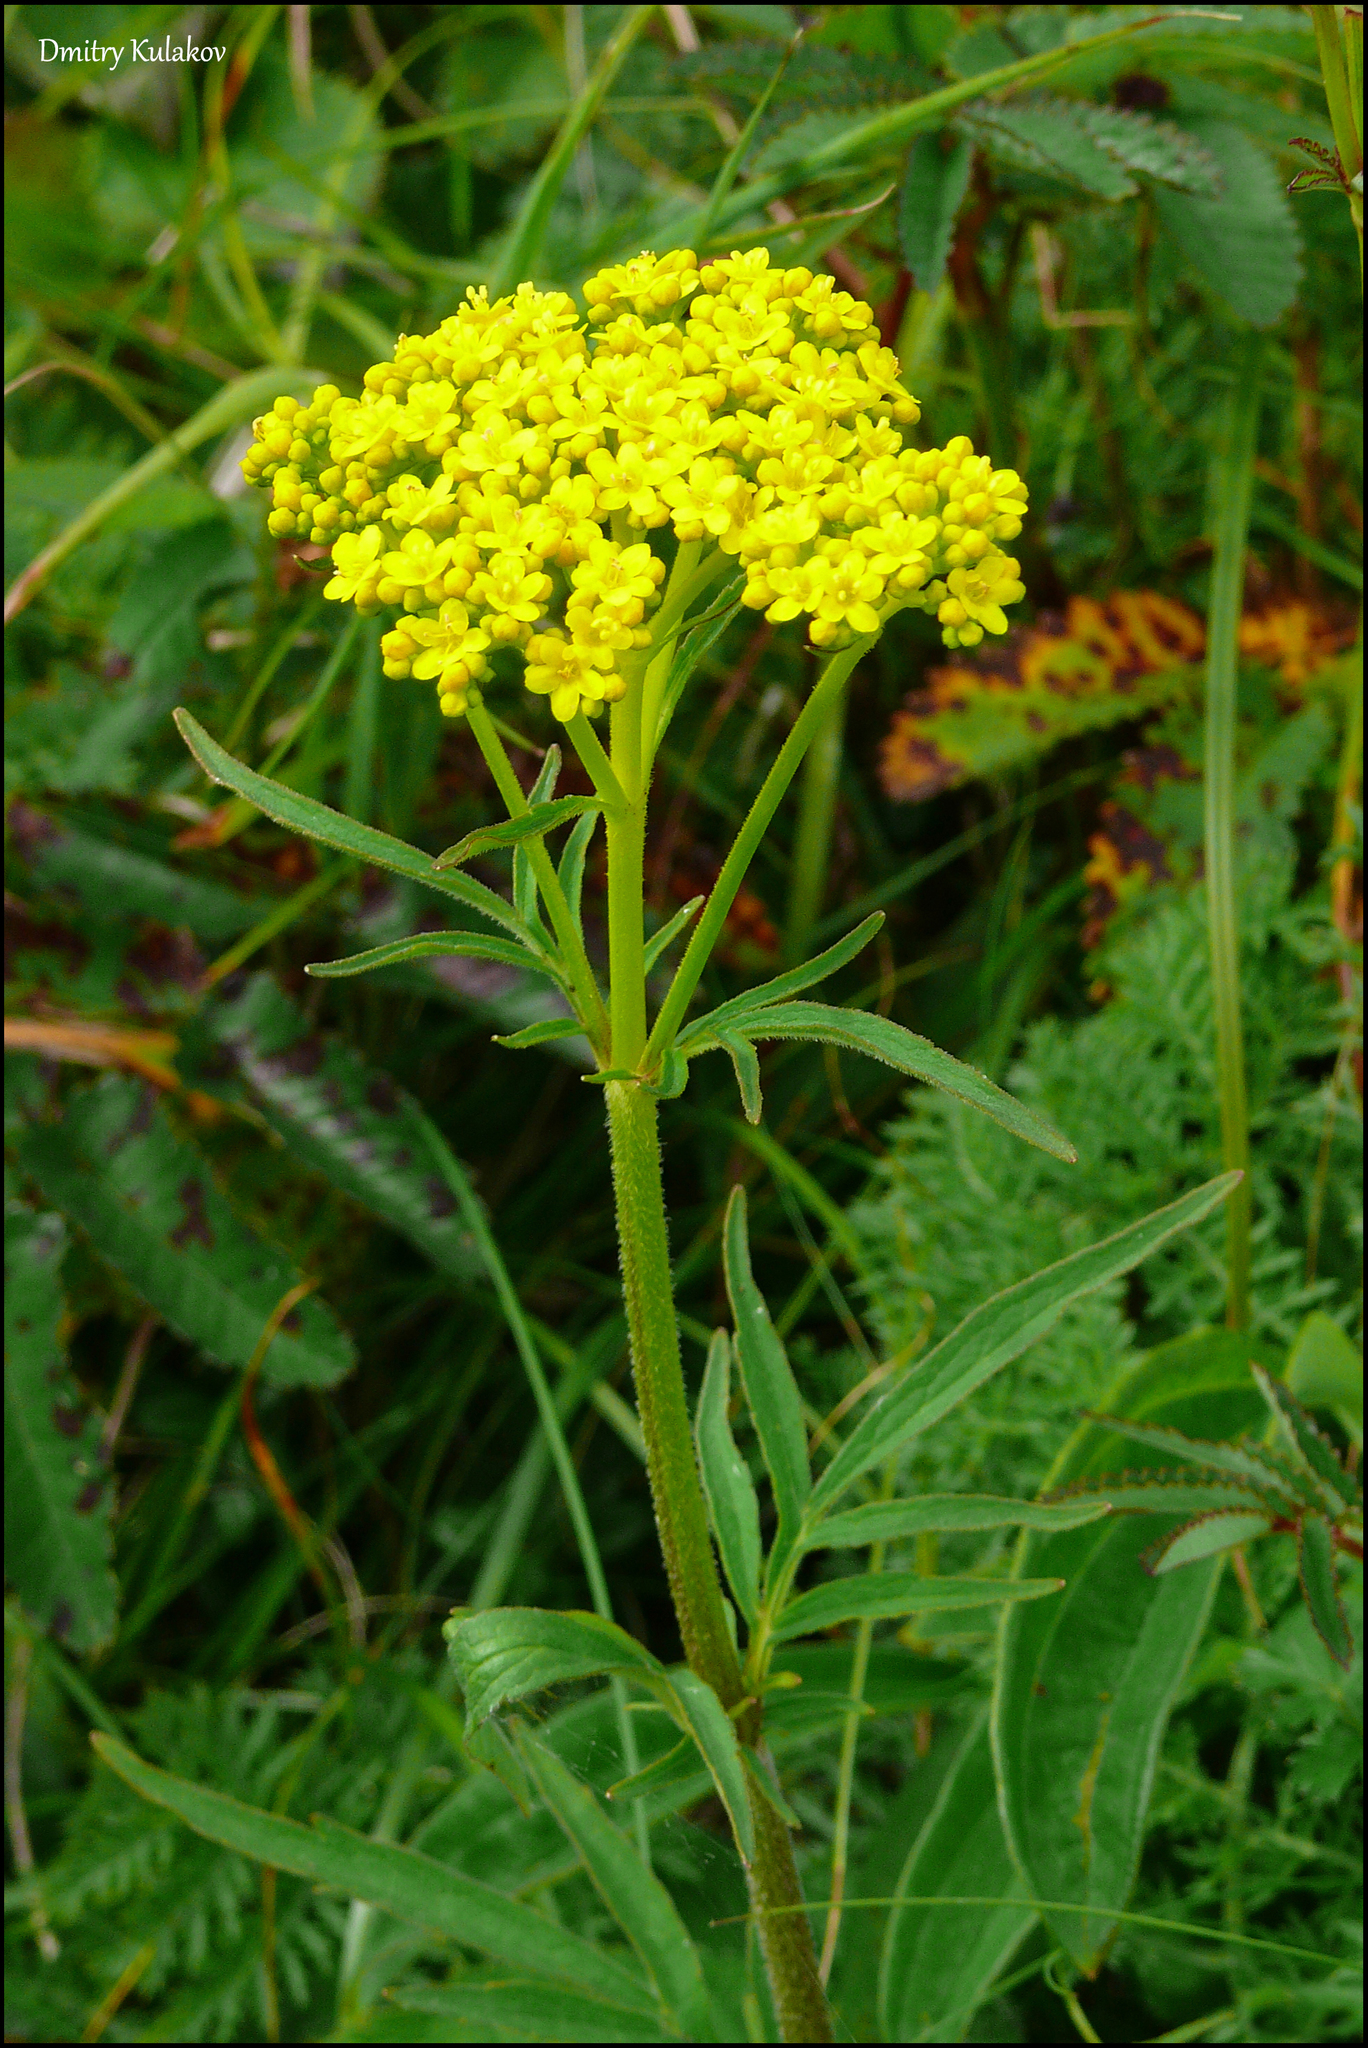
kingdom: Plantae
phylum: Tracheophyta
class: Magnoliopsida
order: Dipsacales
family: Caprifoliaceae
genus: Patrinia
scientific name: Patrinia scabiosifolia
